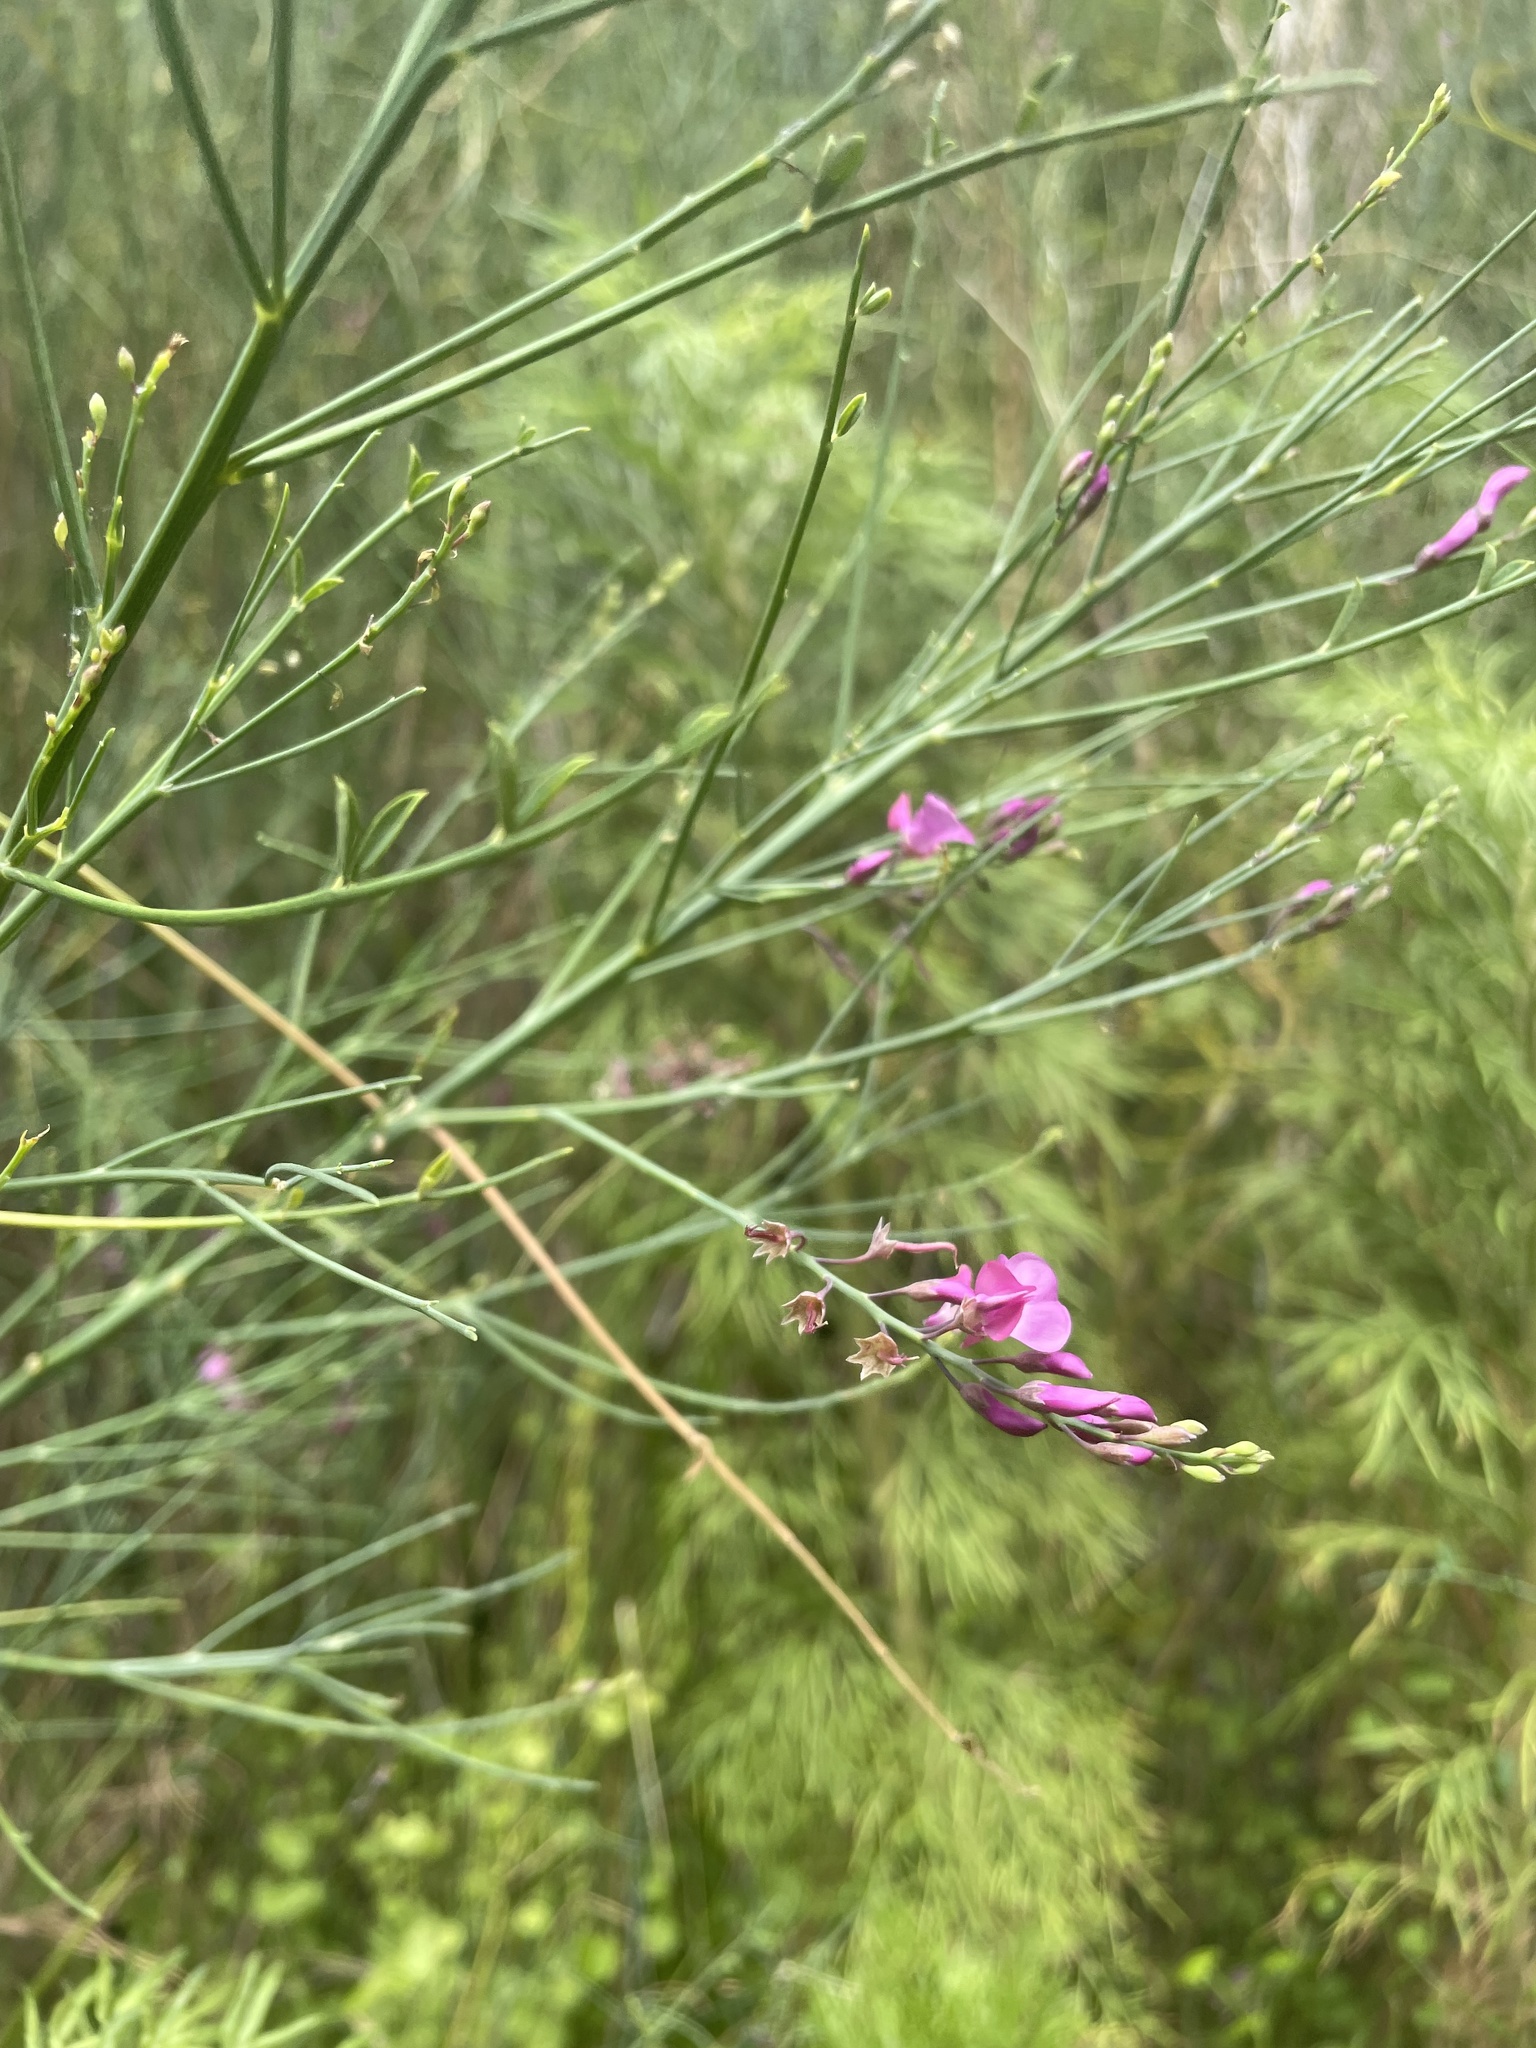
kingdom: Plantae
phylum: Tracheophyta
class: Magnoliopsida
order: Fabales
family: Fabaceae
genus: Indigofera
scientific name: Indigofera filifolia
